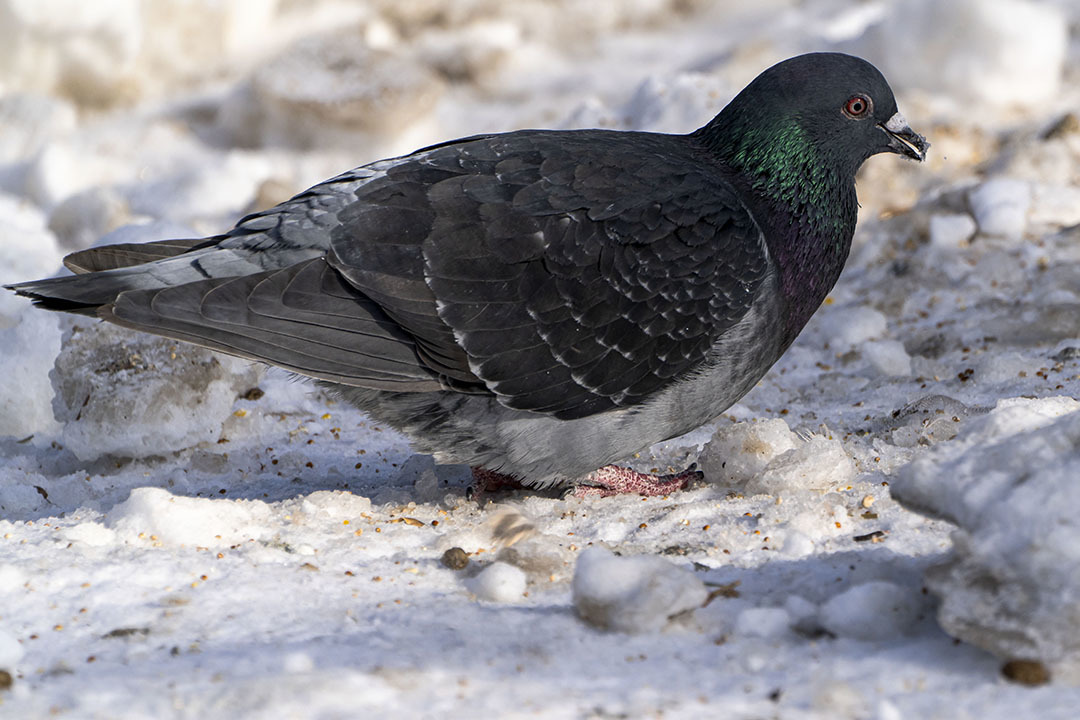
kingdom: Animalia
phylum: Chordata
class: Aves
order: Columbiformes
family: Columbidae
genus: Columba
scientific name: Columba livia
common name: Rock pigeon
